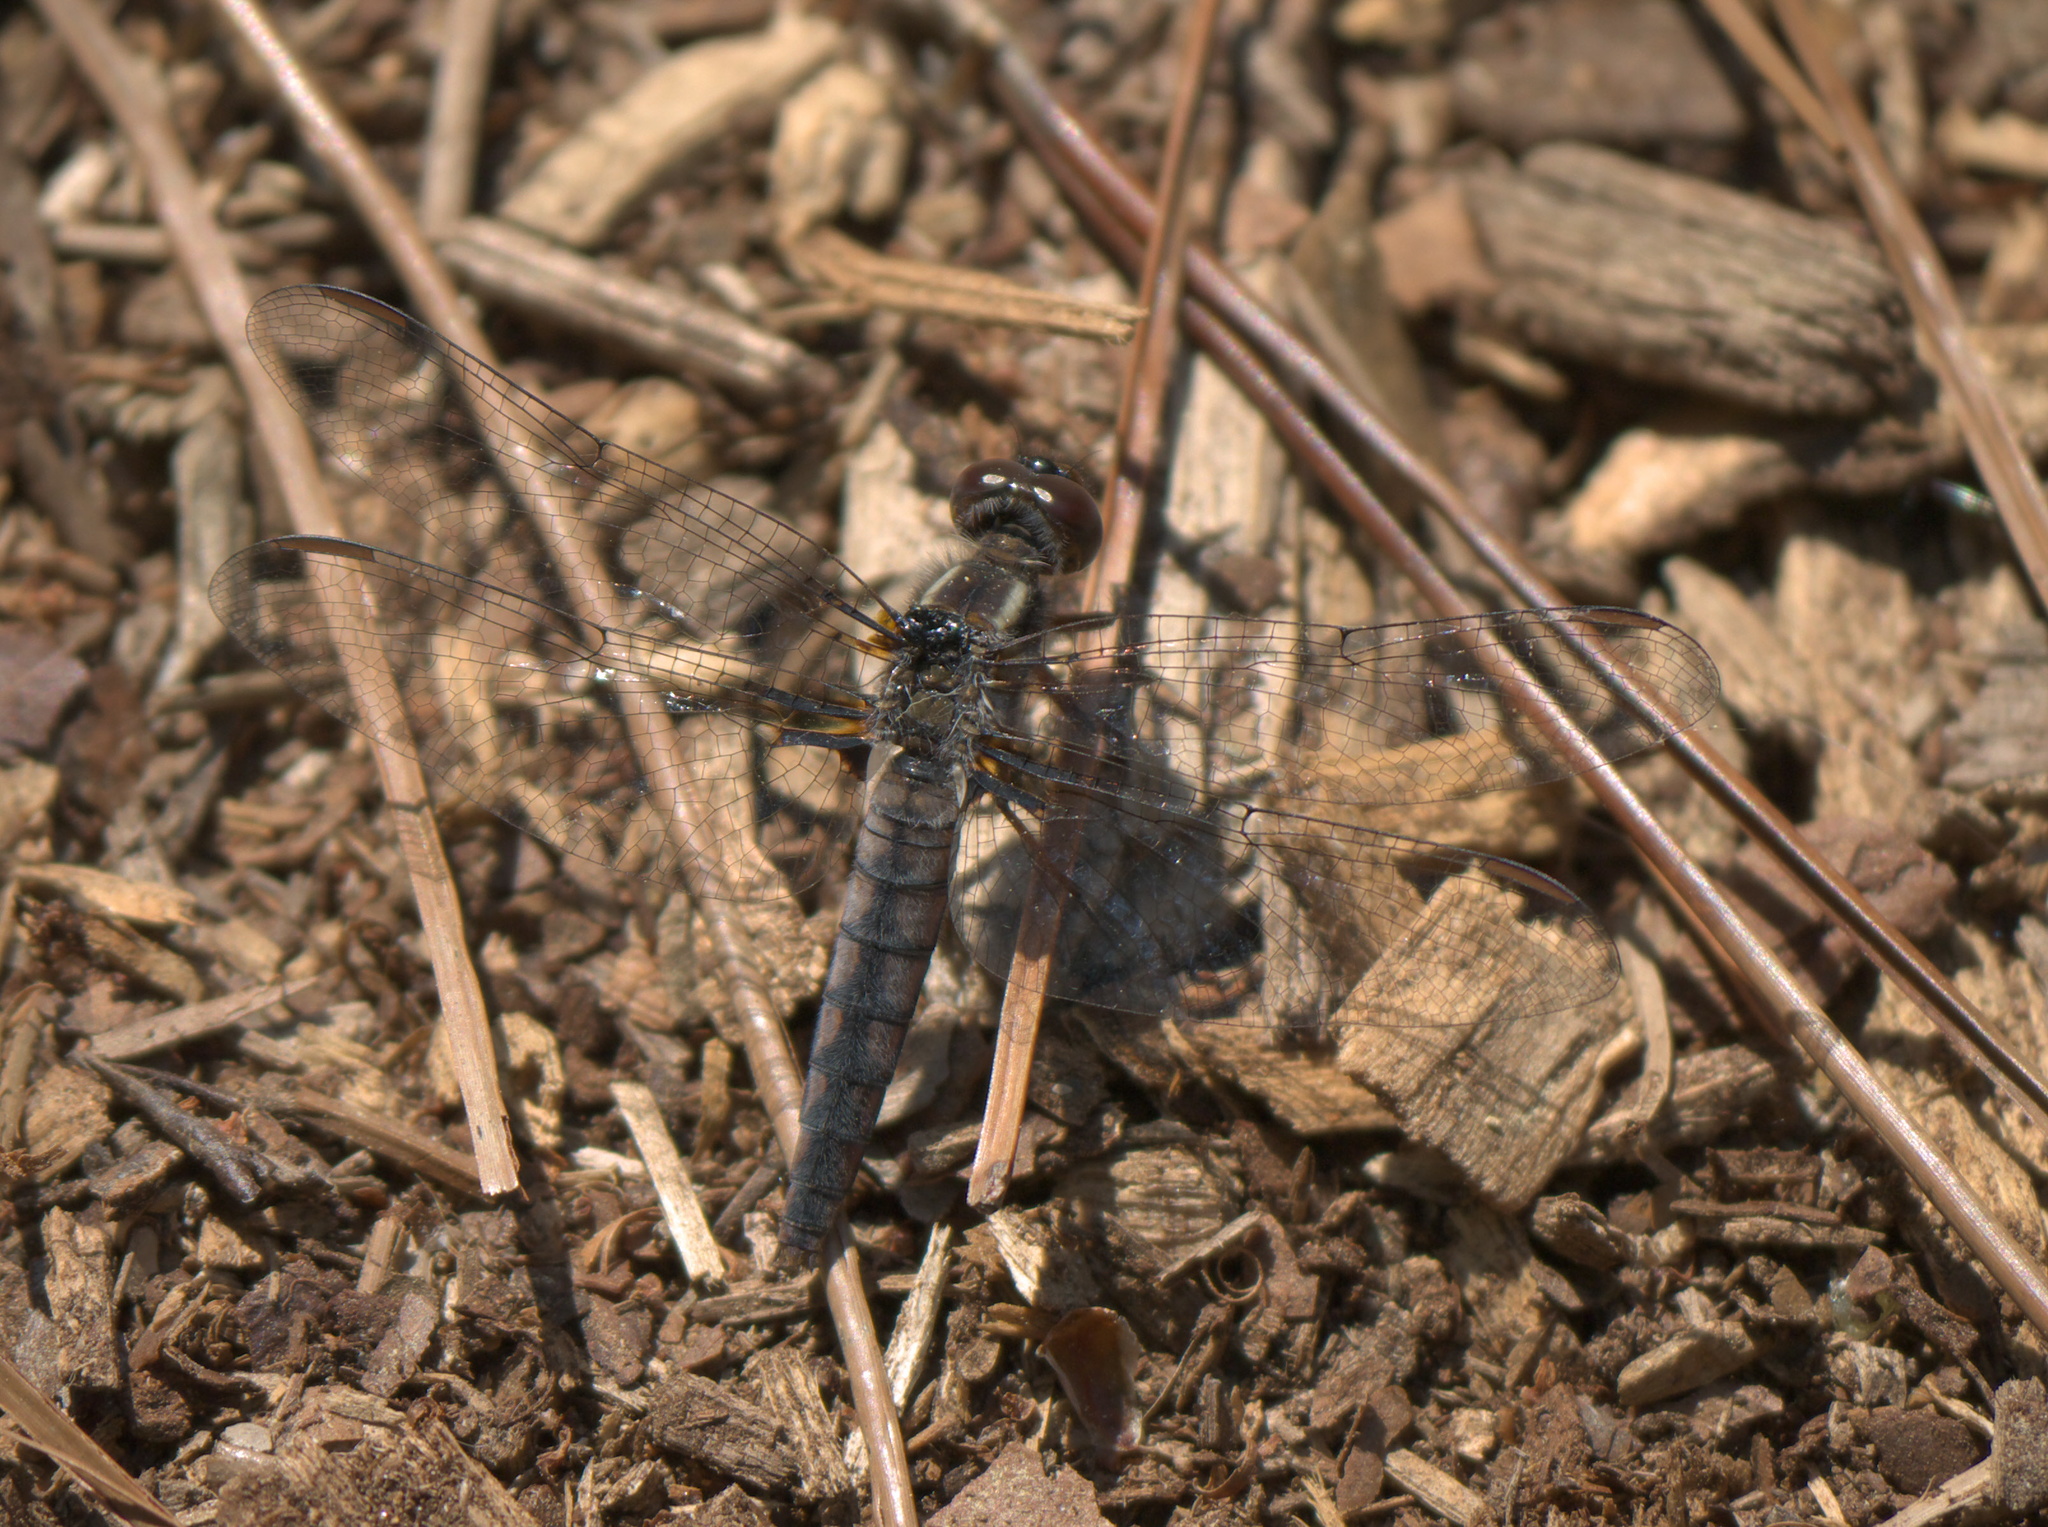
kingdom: Animalia
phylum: Arthropoda
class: Insecta
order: Odonata
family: Libellulidae
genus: Ladona
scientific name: Ladona deplanata
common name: Blue corporal
